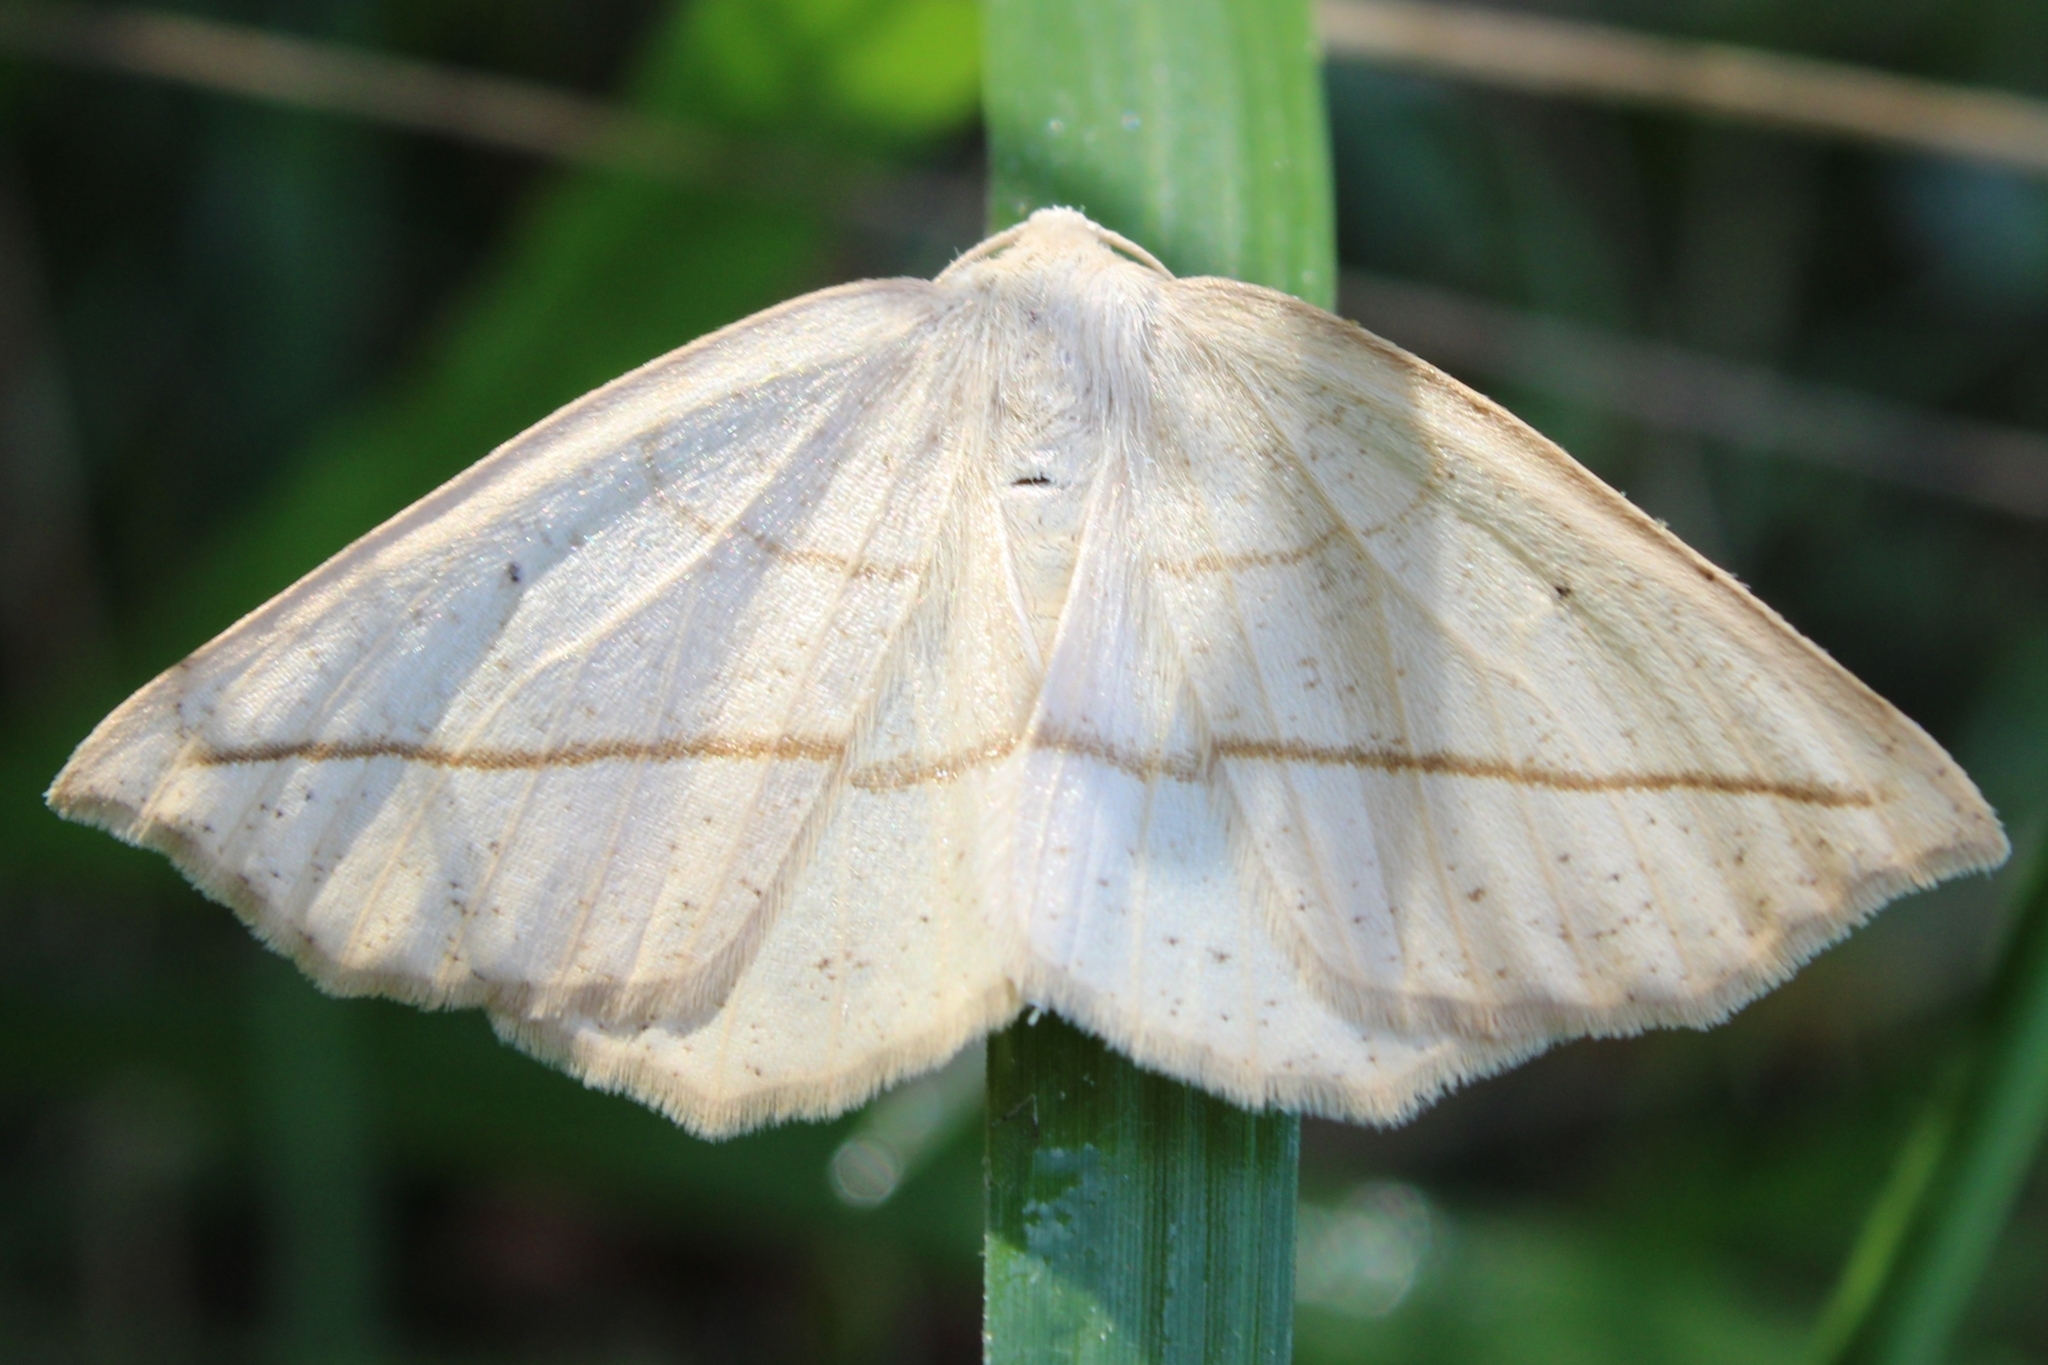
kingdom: Animalia
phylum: Arthropoda
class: Insecta
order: Lepidoptera
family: Geometridae
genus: Eusarca
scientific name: Eusarca confusaria
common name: Confused eusarca
